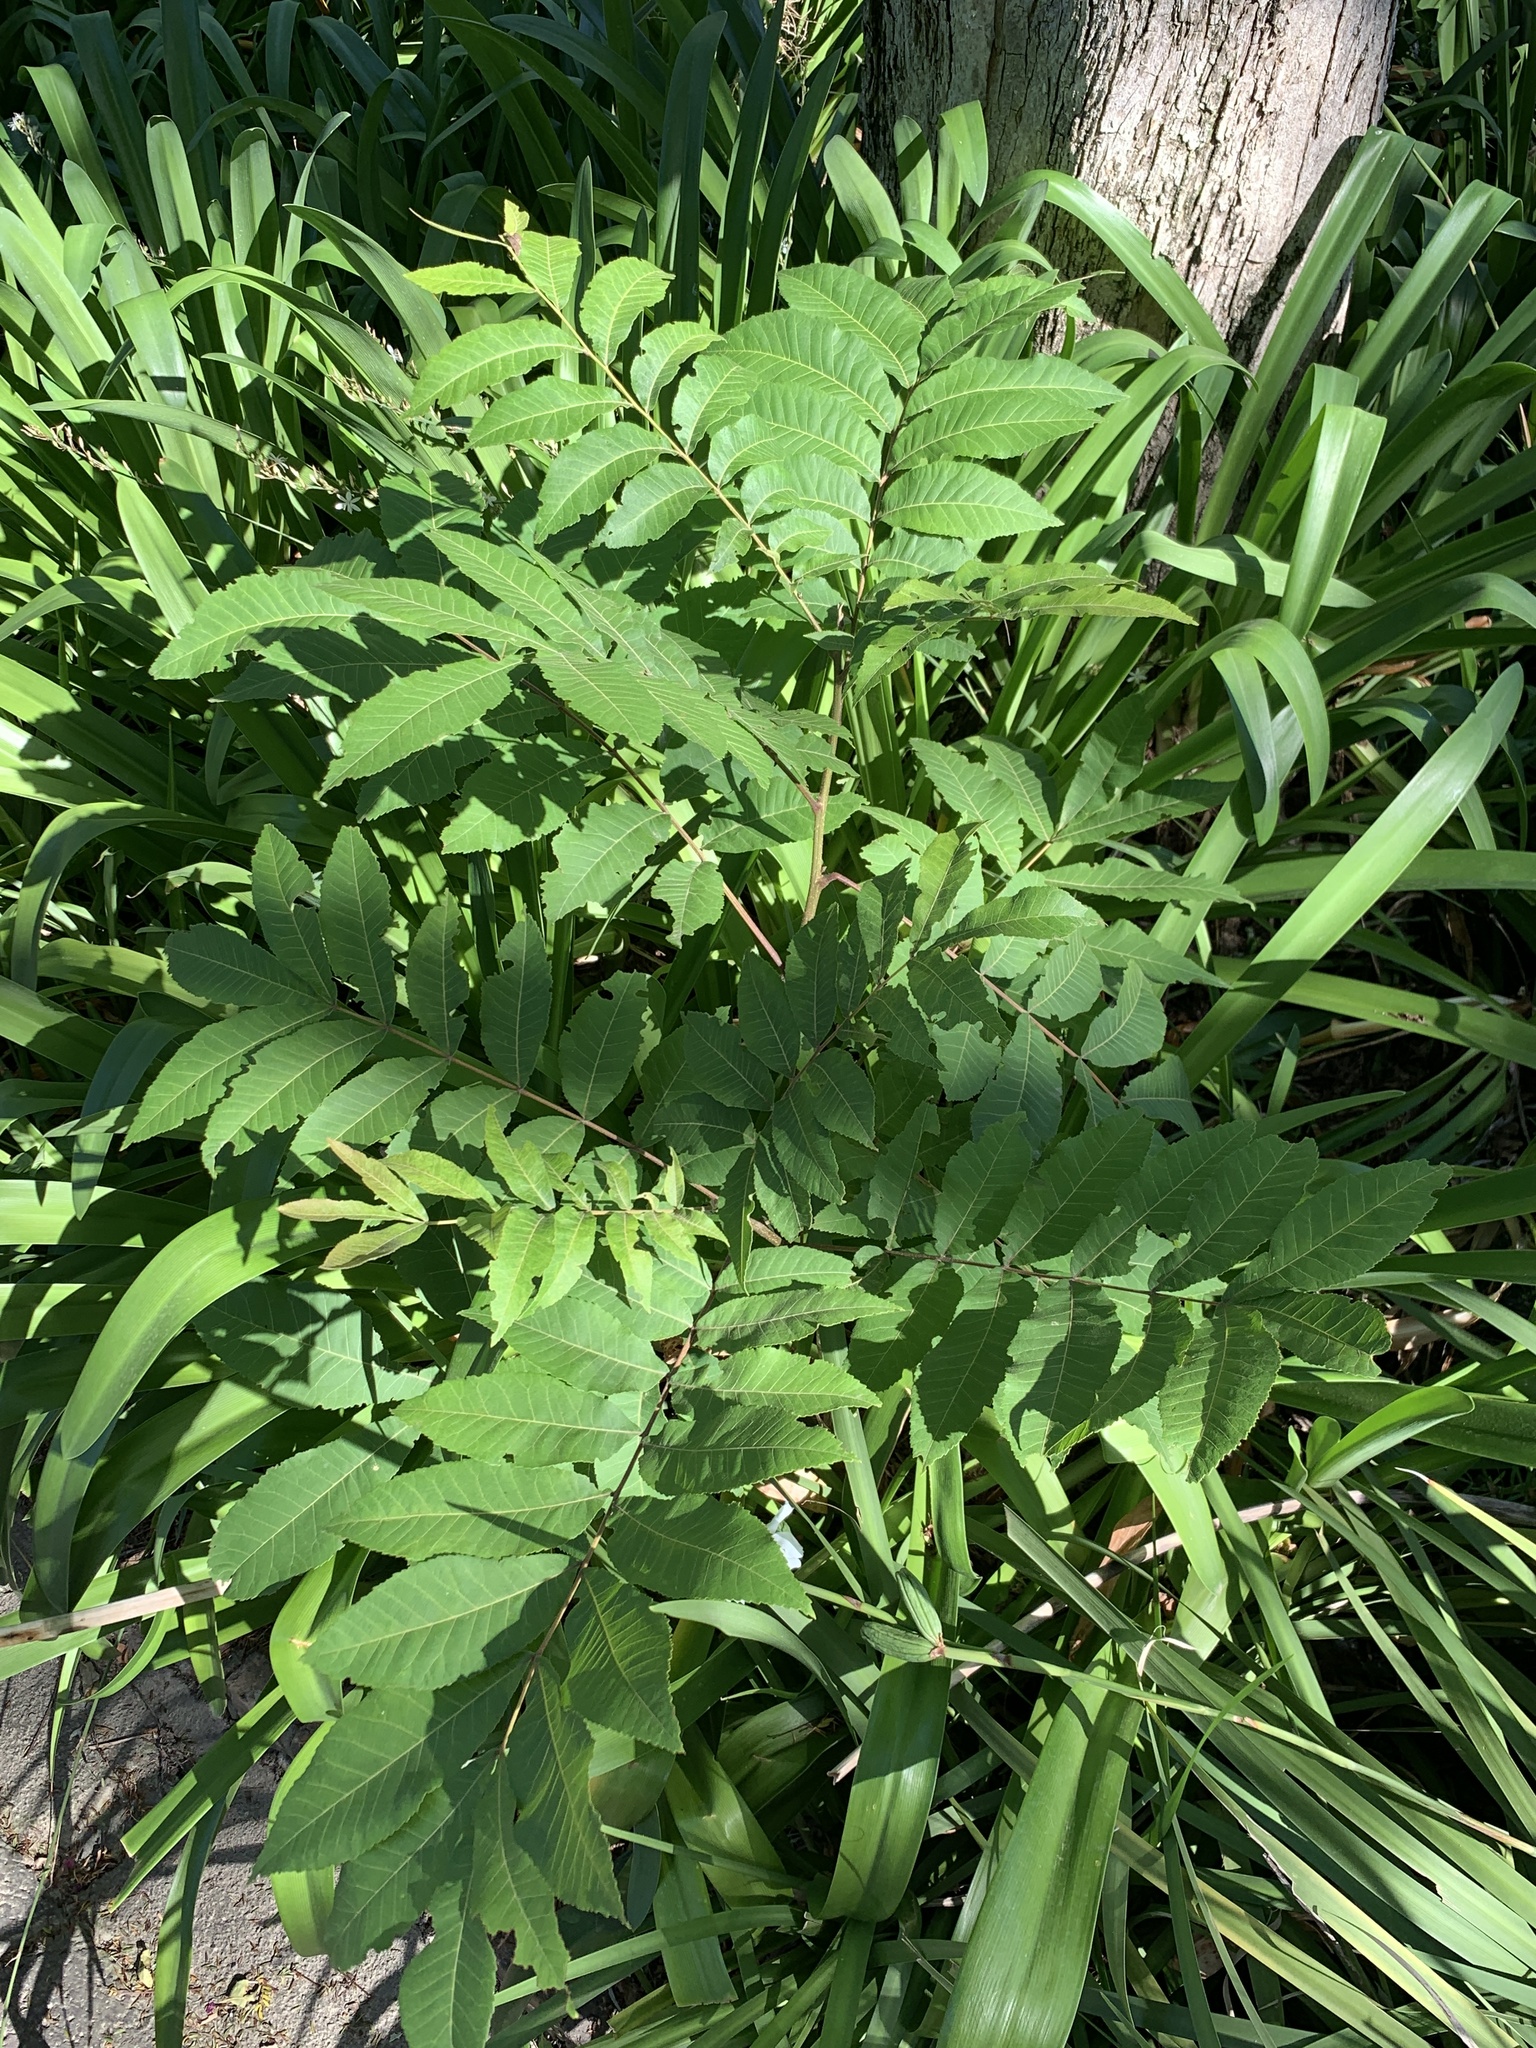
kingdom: Plantae
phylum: Tracheophyta
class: Magnoliopsida
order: Fagales
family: Juglandaceae
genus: Carya
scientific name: Carya illinoinensis
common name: Pecan
